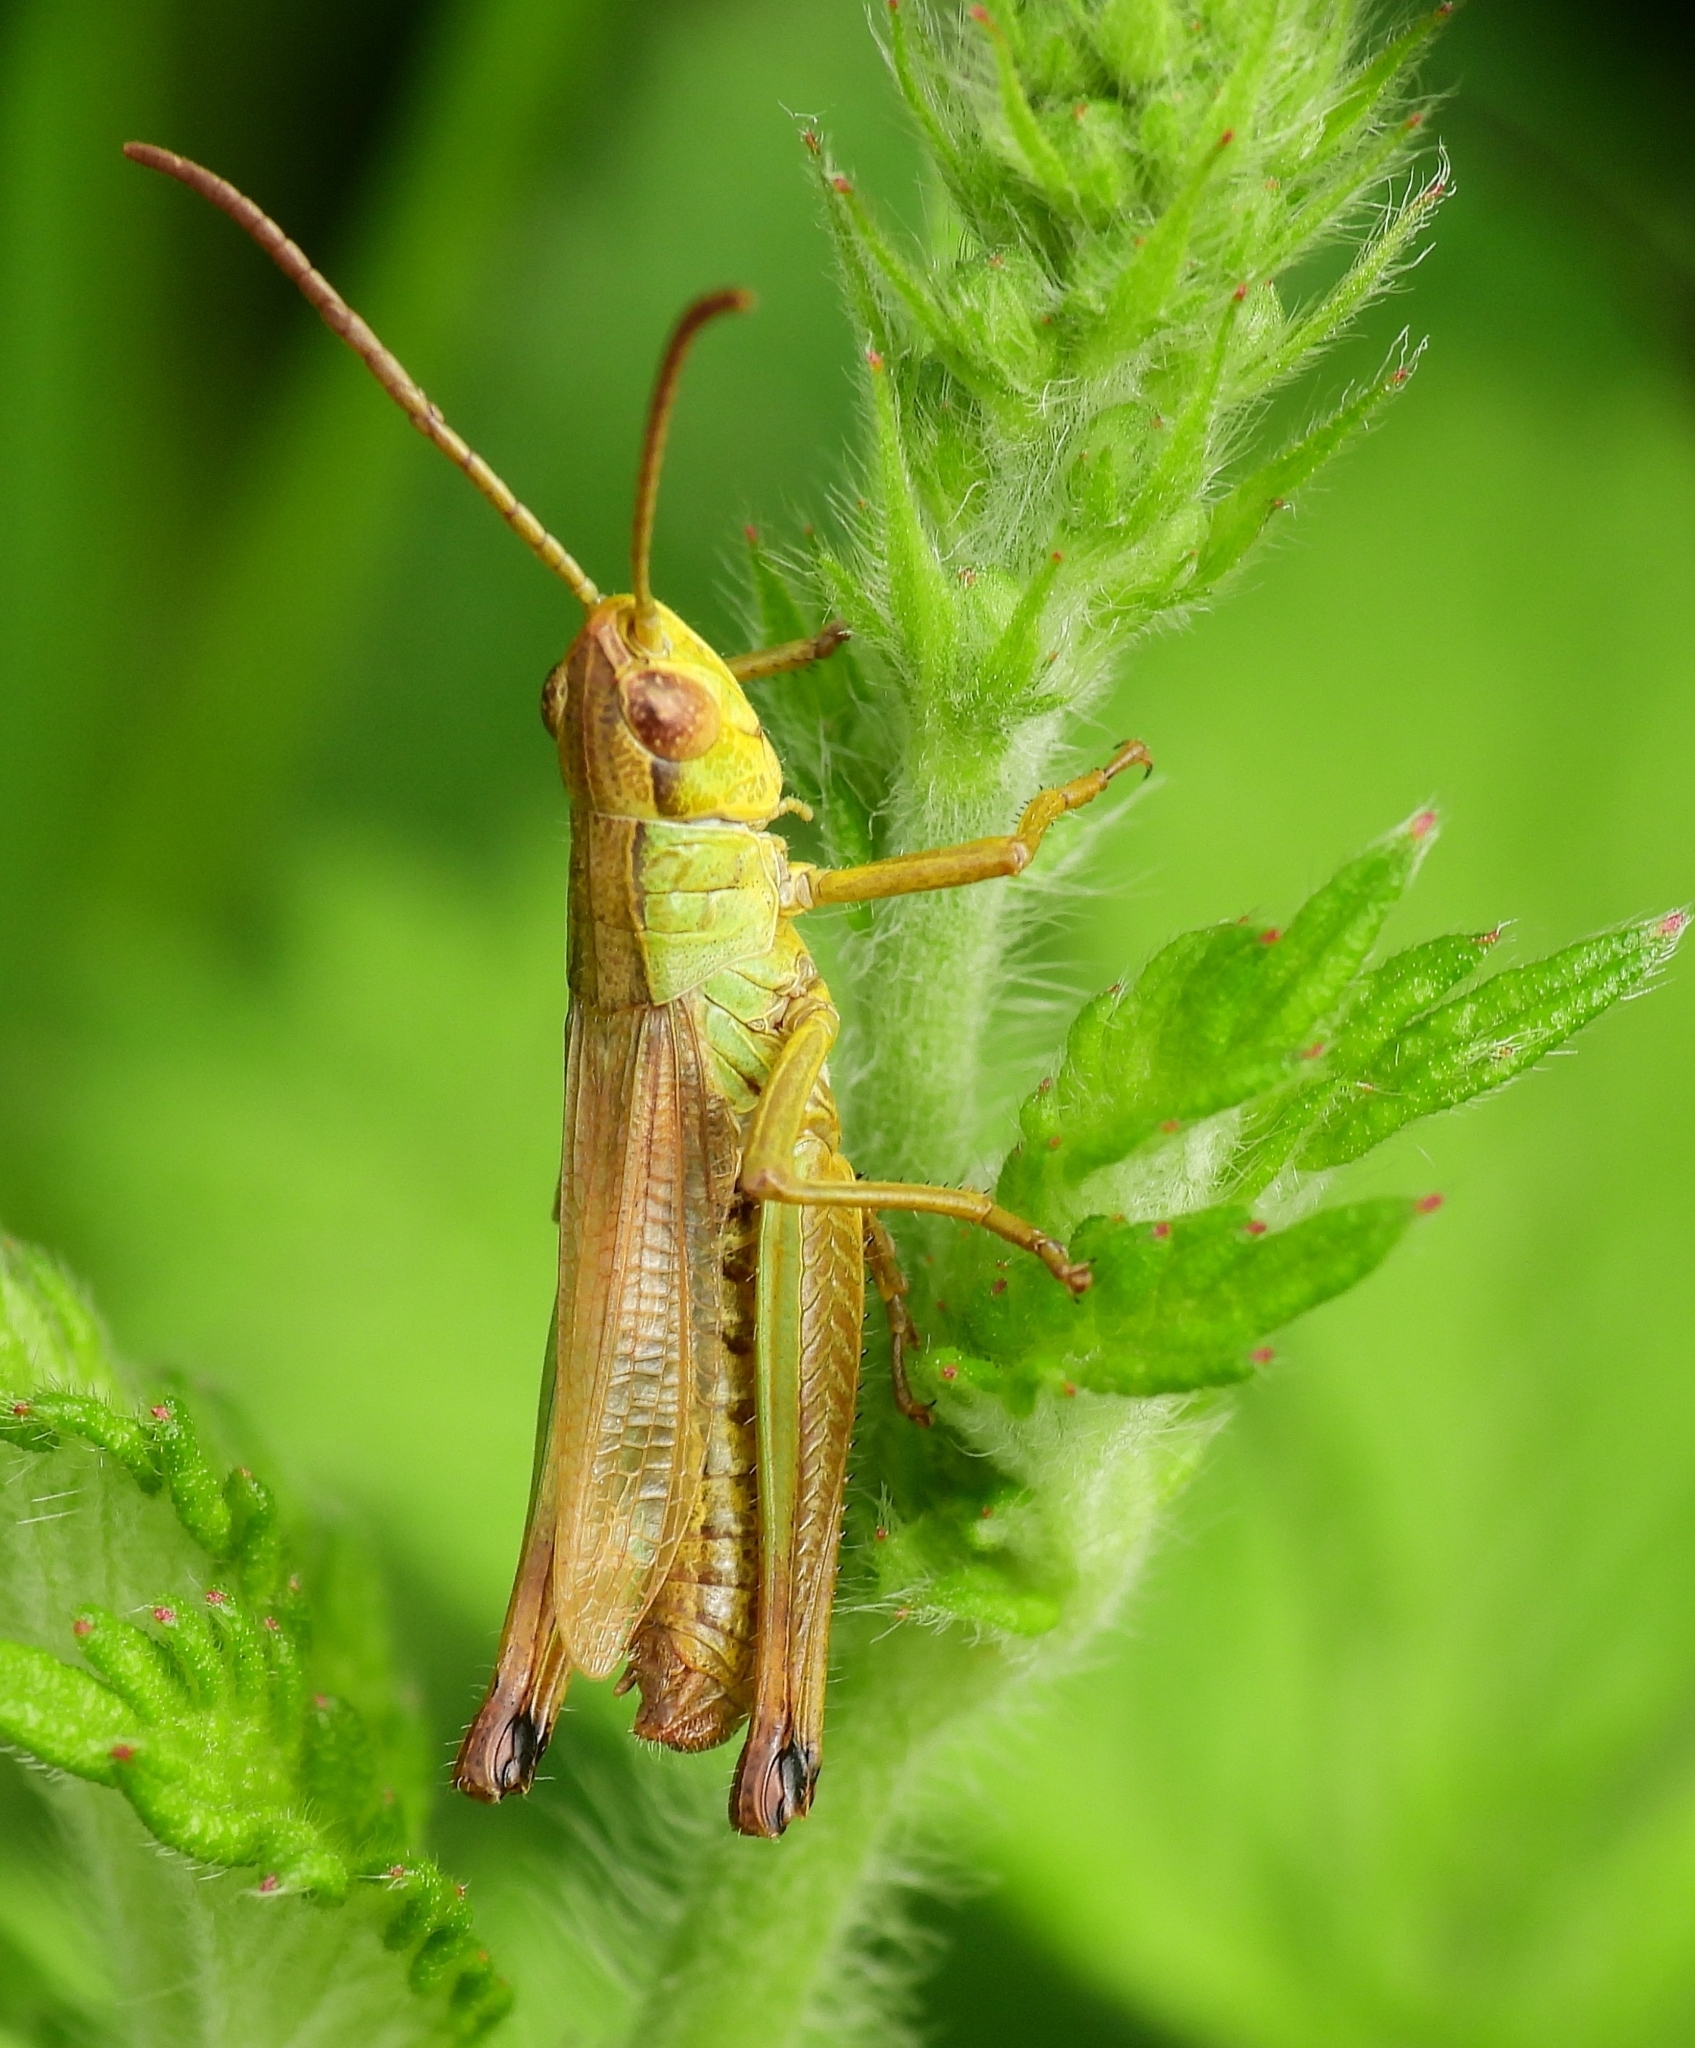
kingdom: Animalia
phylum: Arthropoda
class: Insecta
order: Orthoptera
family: Acrididae
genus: Pseudochorthippus
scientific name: Pseudochorthippus parallelus
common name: Meadow grasshopper
